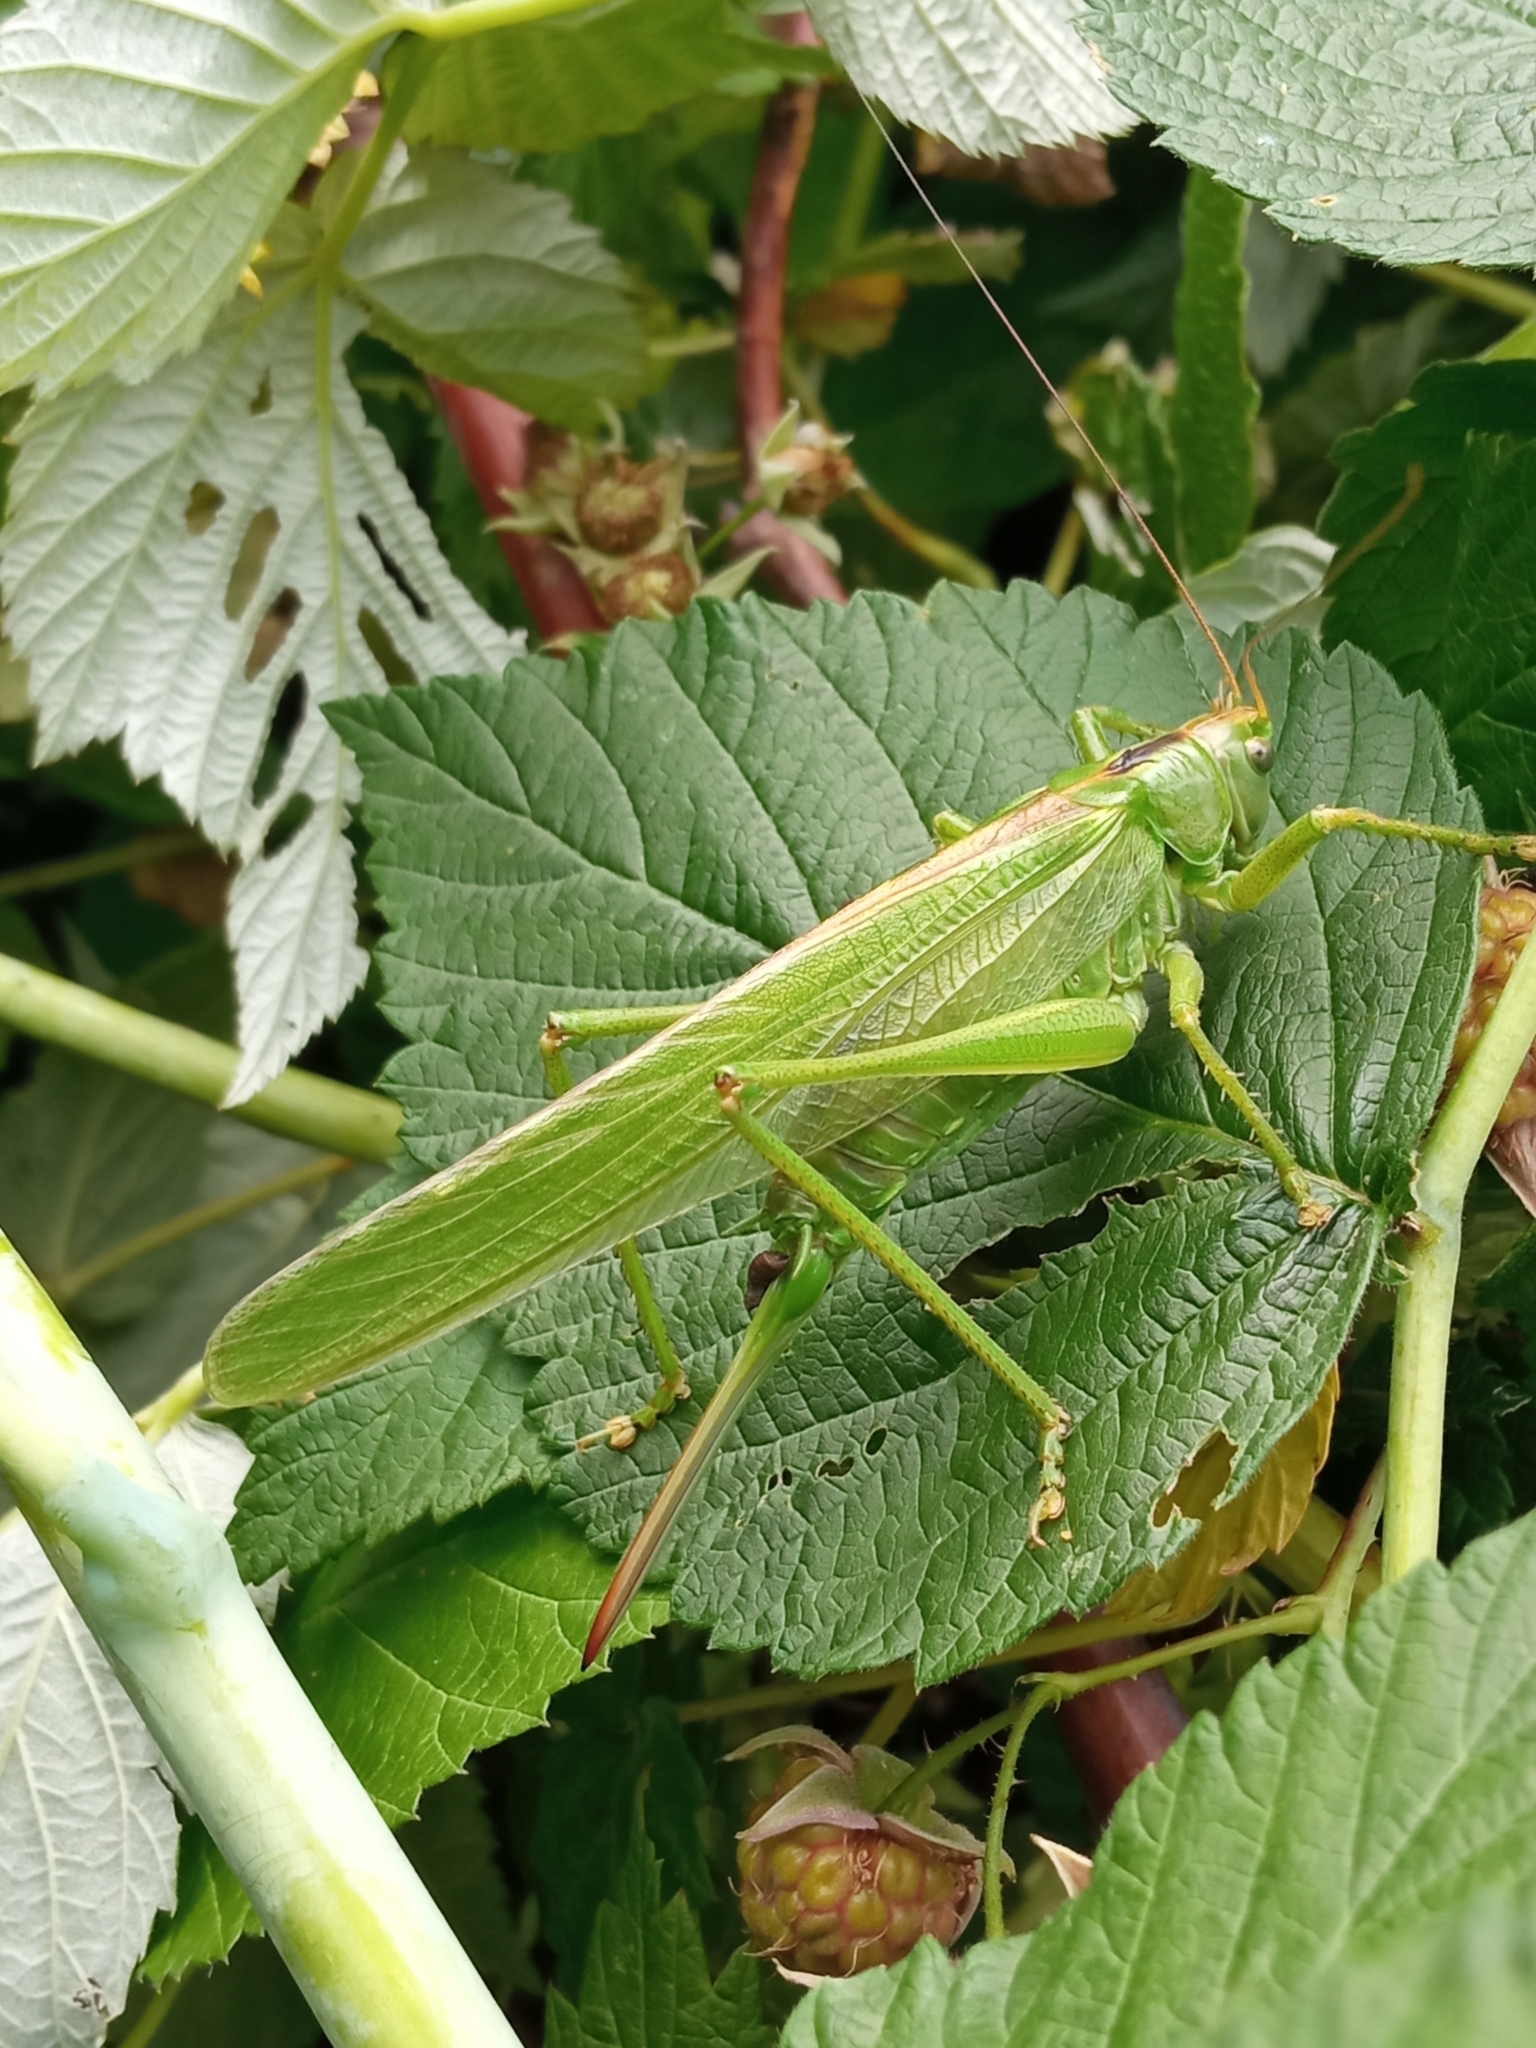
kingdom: Animalia
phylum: Arthropoda
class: Insecta
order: Orthoptera
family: Tettigoniidae
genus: Tettigonia
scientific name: Tettigonia viridissima
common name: Great green bush-cricket
